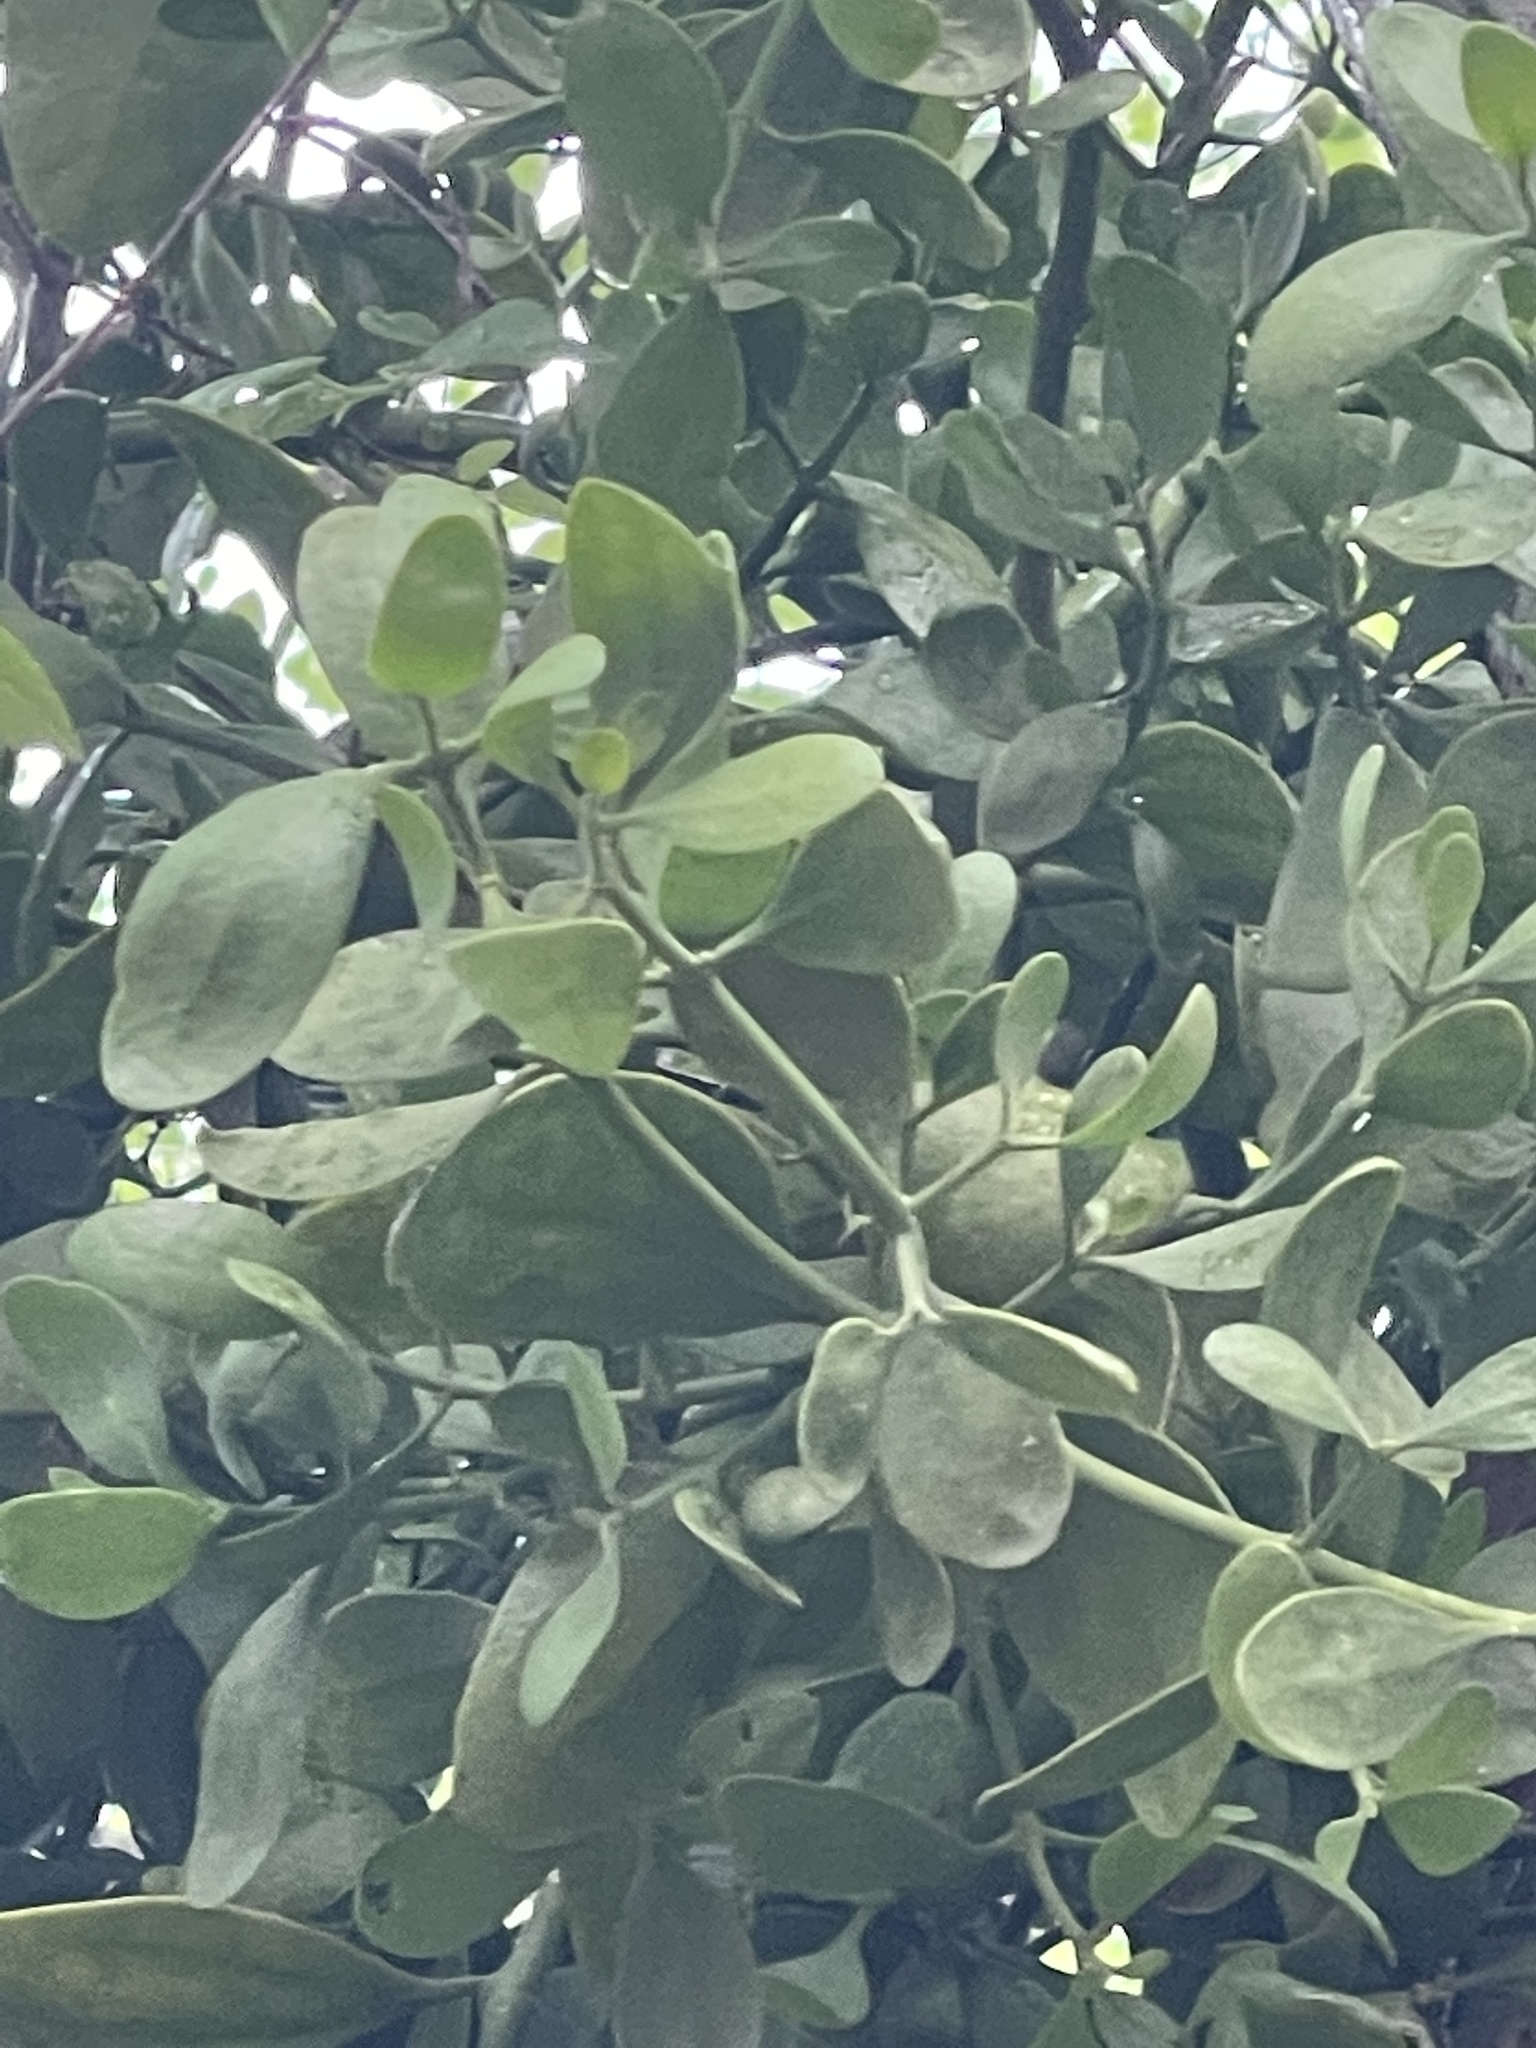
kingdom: Plantae
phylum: Tracheophyta
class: Magnoliopsida
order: Santalales
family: Viscaceae
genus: Phoradendron
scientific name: Phoradendron leucarpum
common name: Pacific mistletoe
